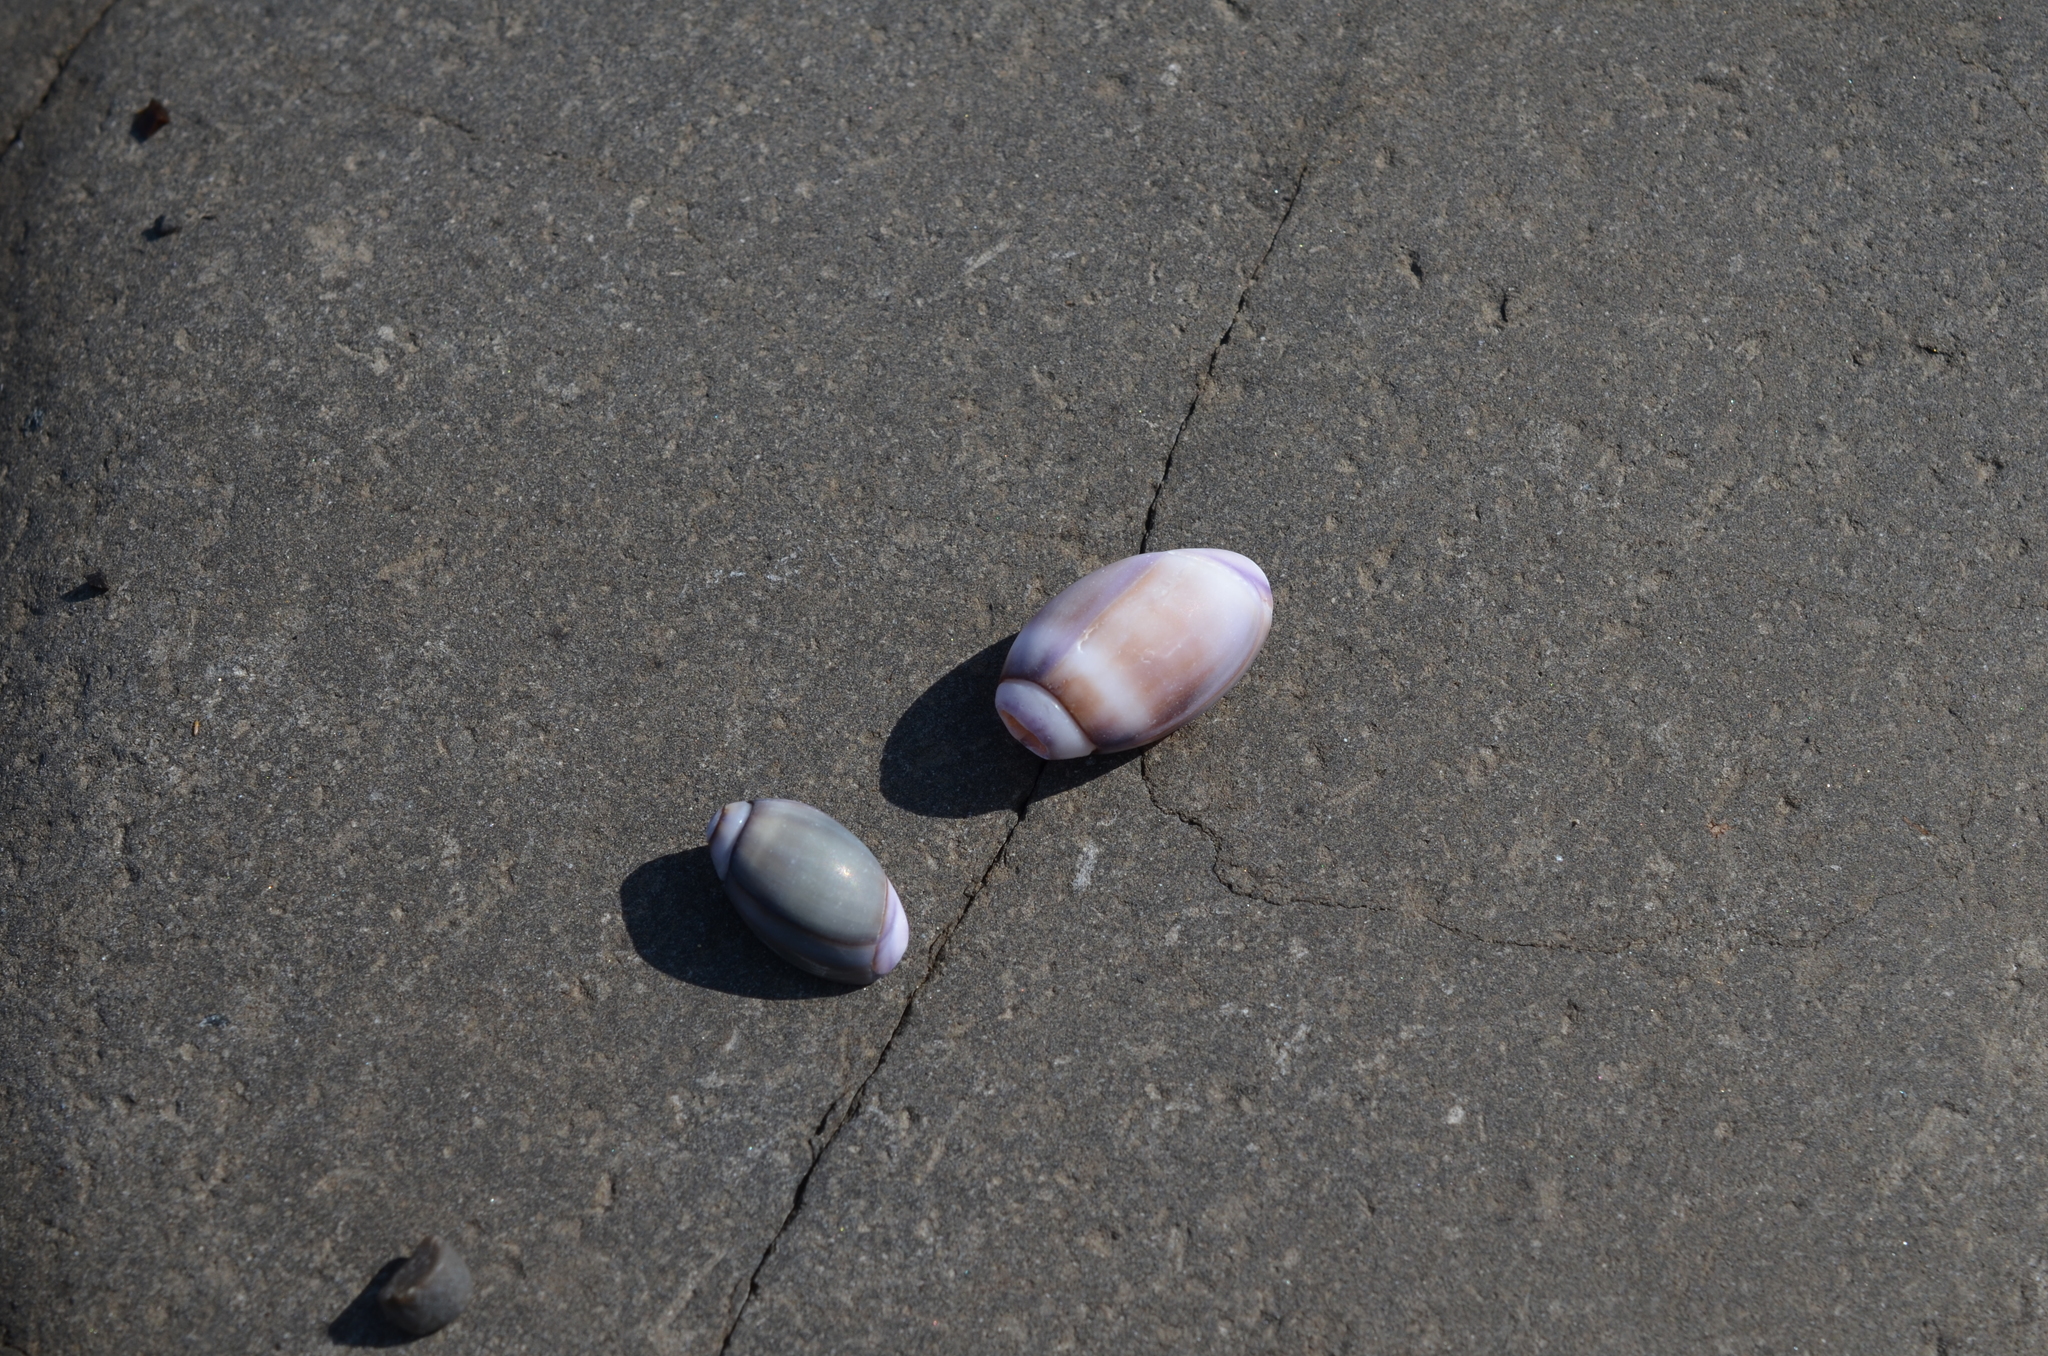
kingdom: Animalia
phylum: Mollusca
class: Gastropoda
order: Neogastropoda
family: Olividae
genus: Callianax
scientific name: Callianax biplicata
